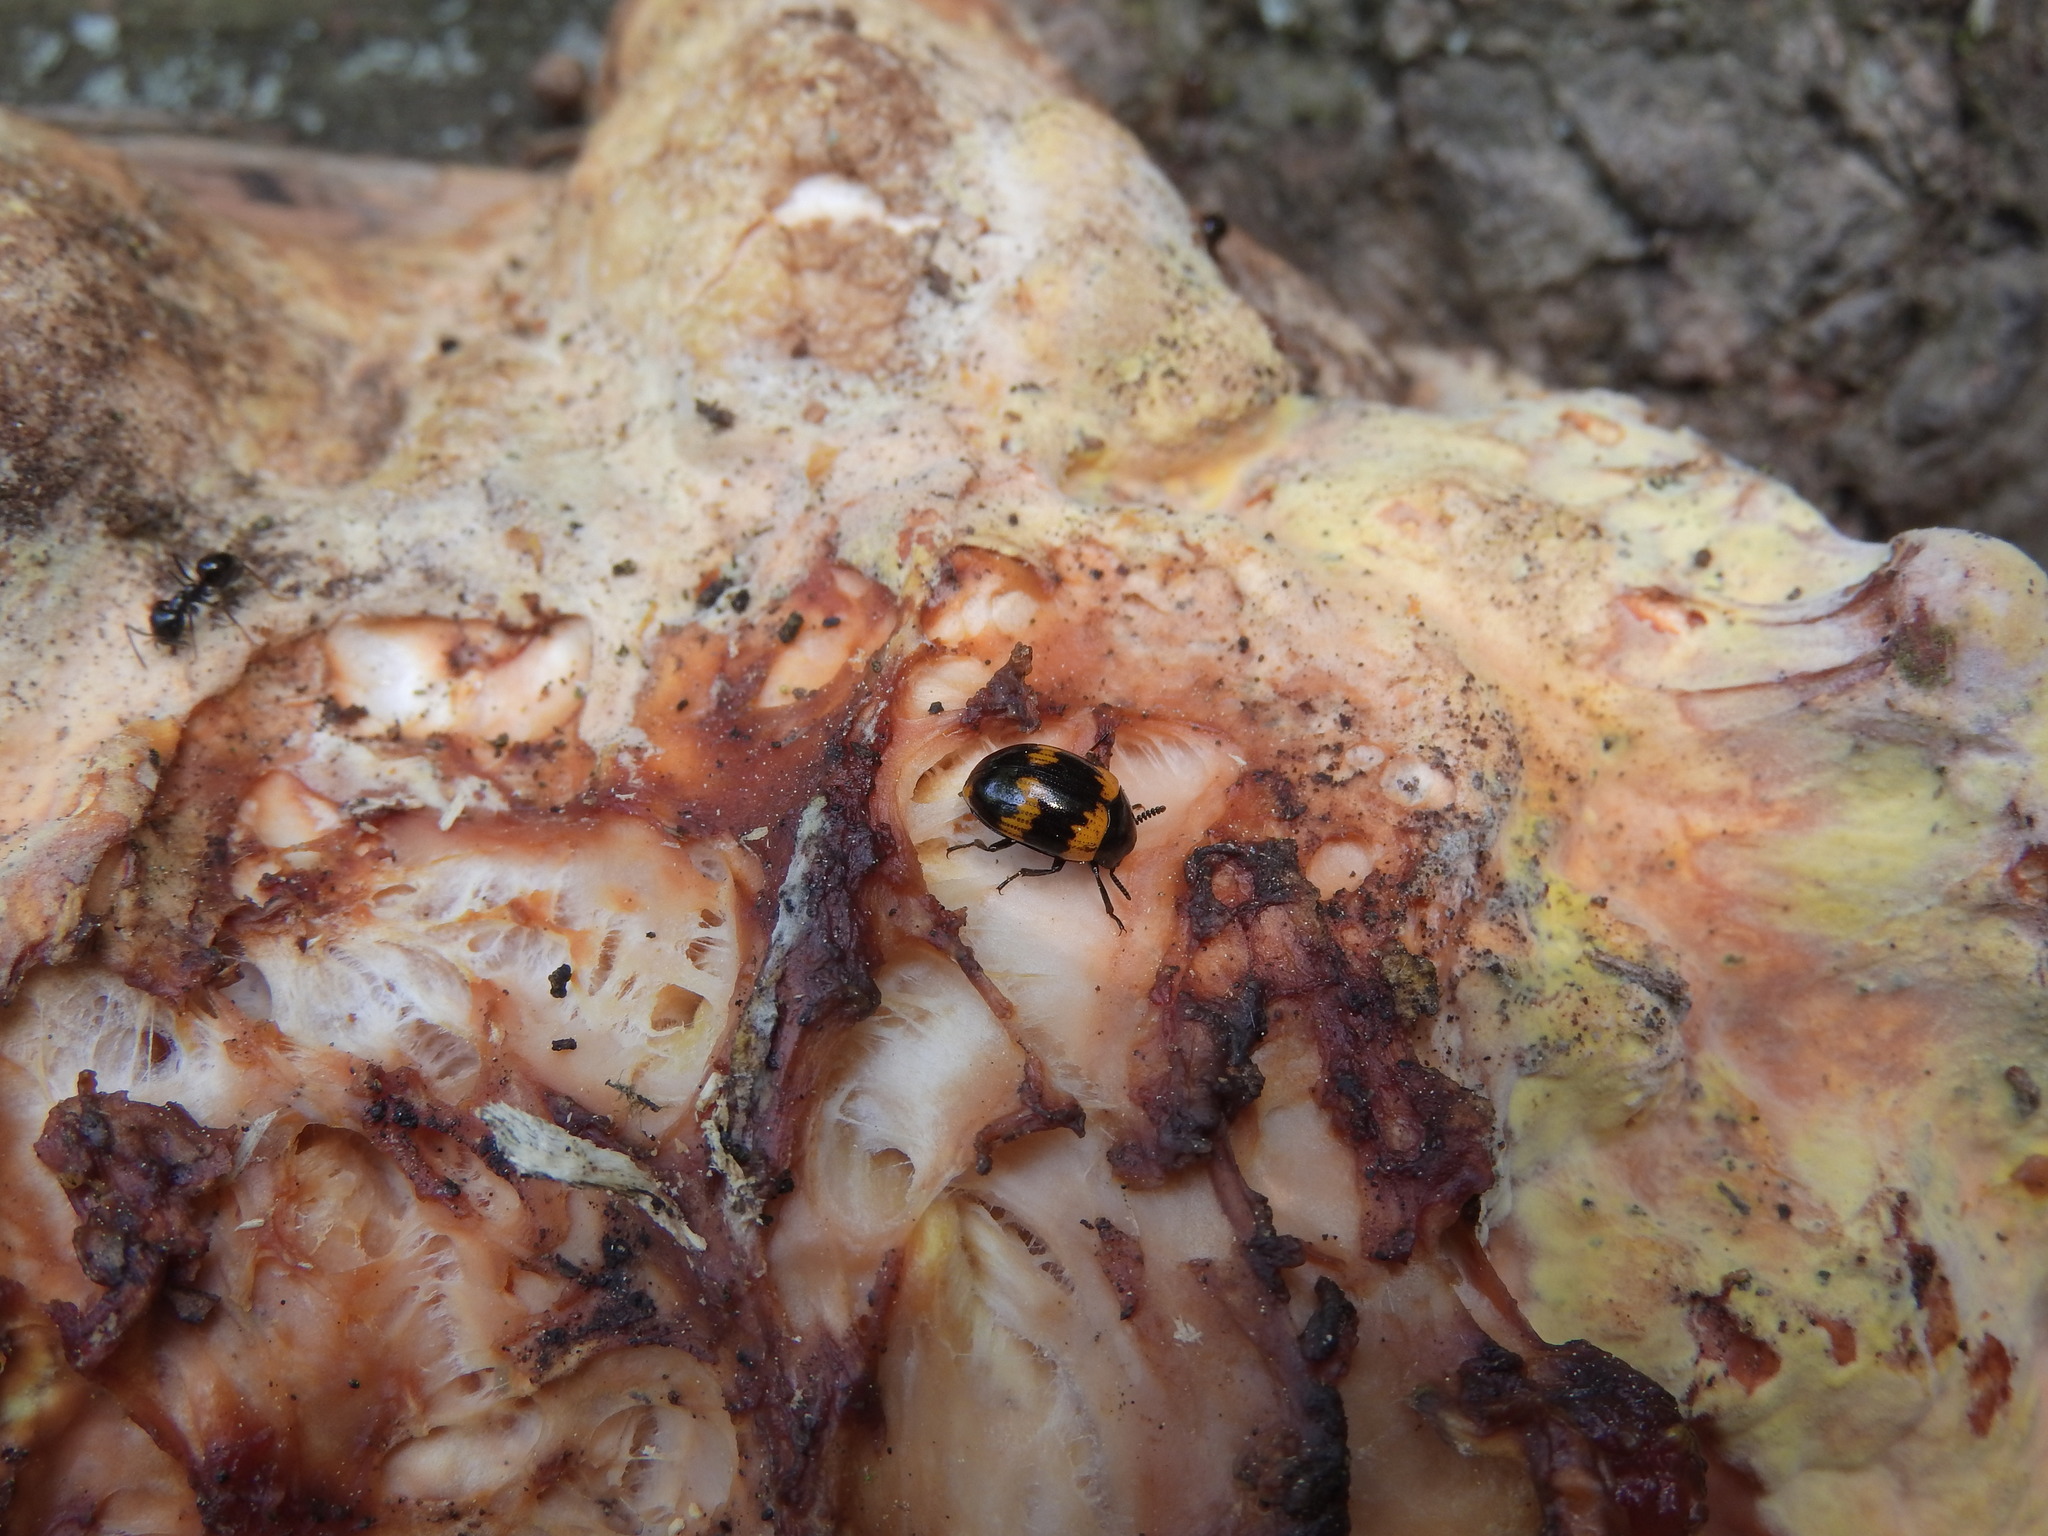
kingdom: Animalia
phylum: Arthropoda
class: Insecta
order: Coleoptera
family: Tenebrionidae
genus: Diaperis
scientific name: Diaperis boleti
